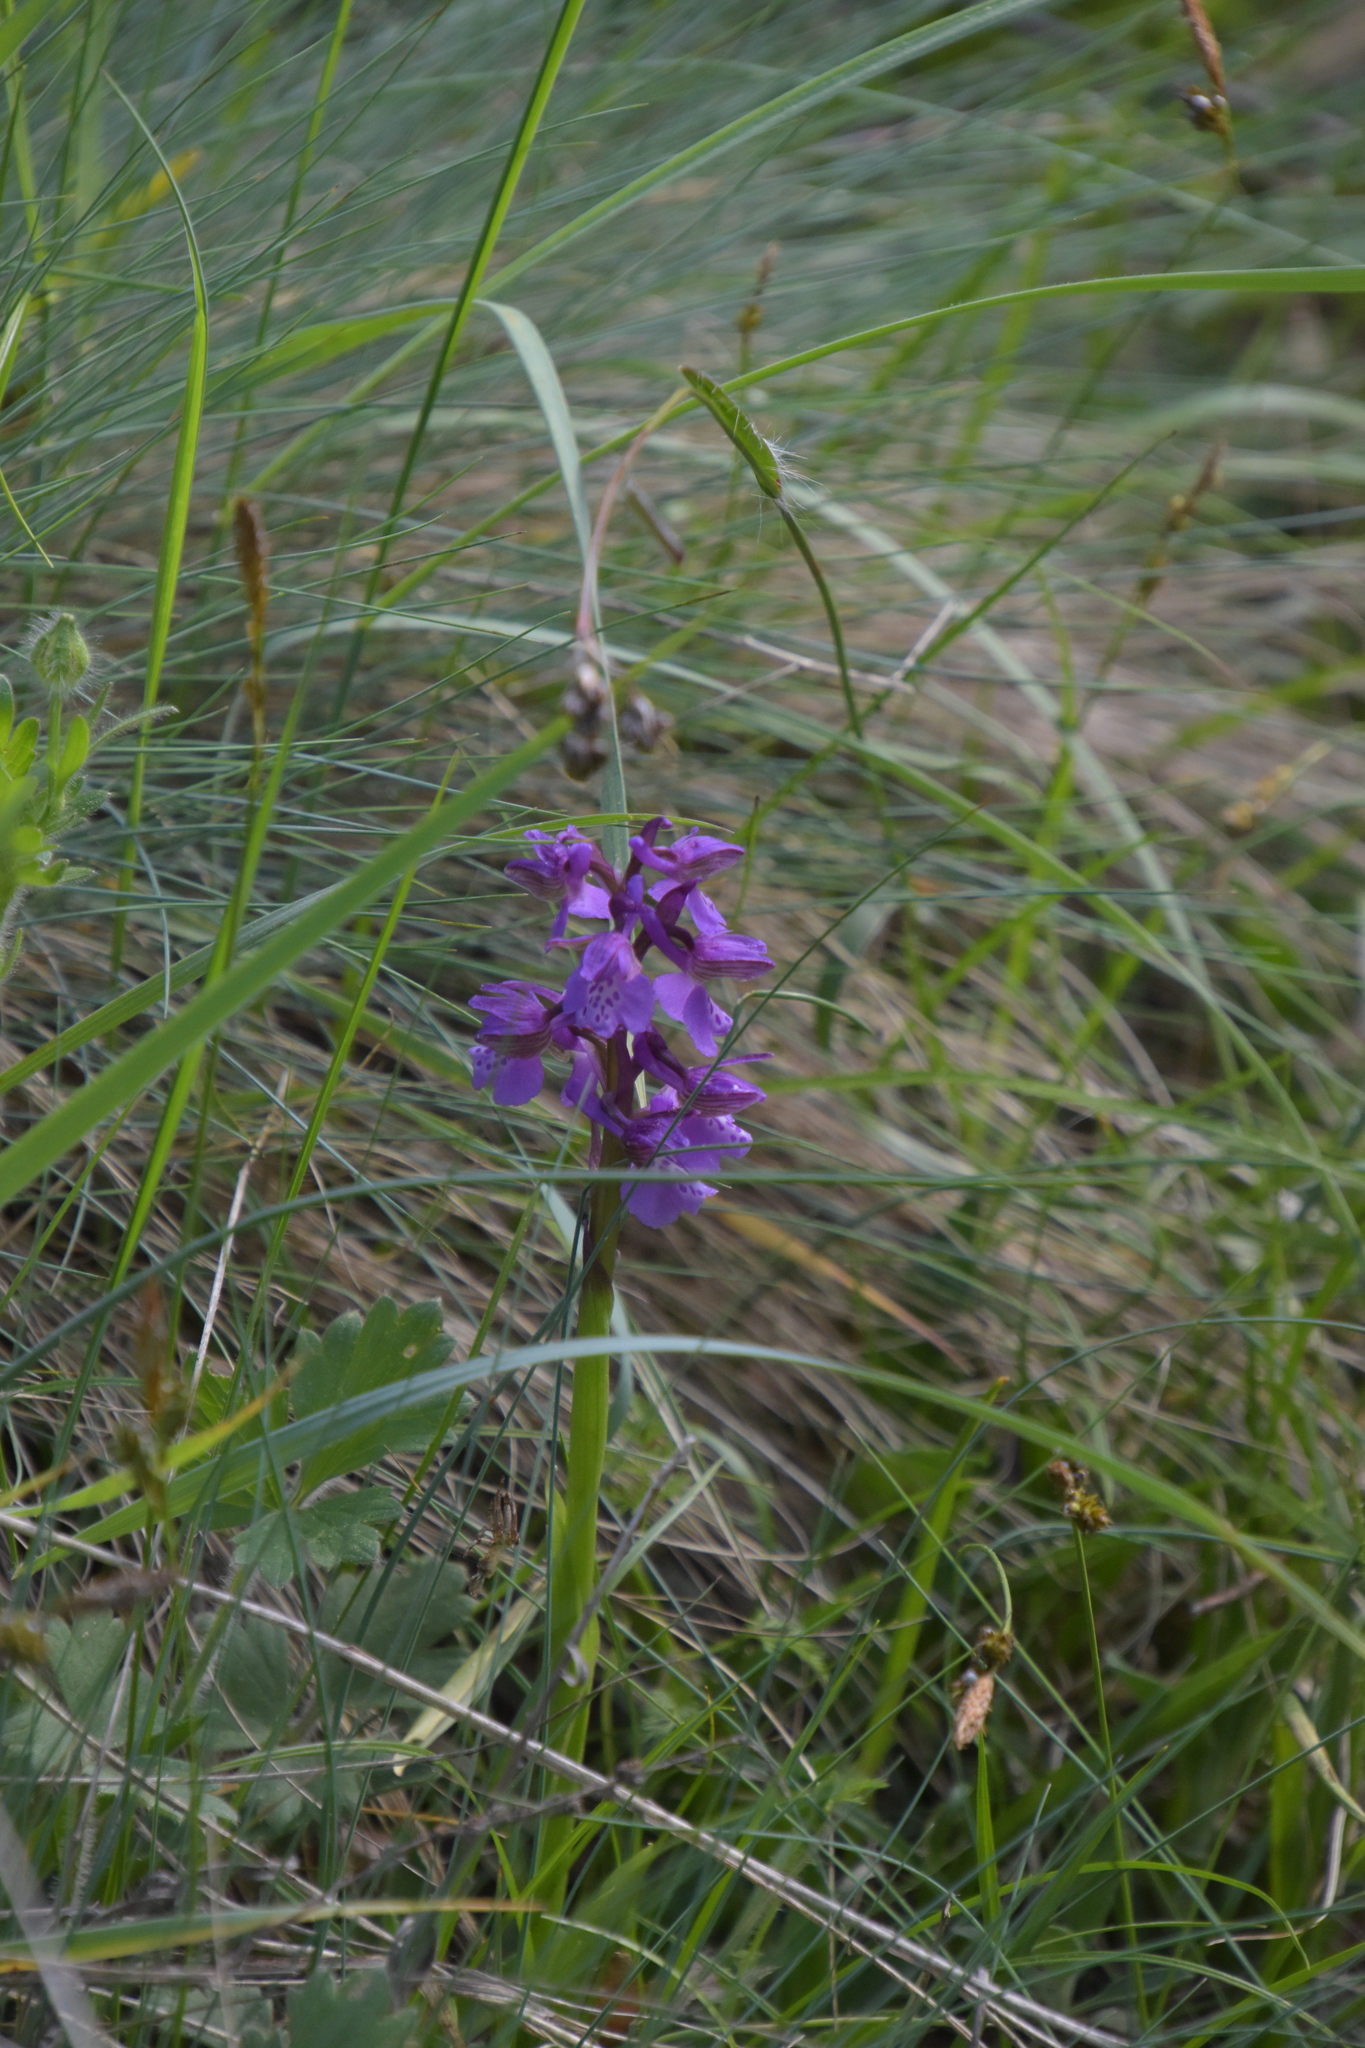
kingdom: Plantae
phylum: Tracheophyta
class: Liliopsida
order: Asparagales
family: Orchidaceae
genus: Anacamptis
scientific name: Anacamptis morio
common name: Green-winged orchid
